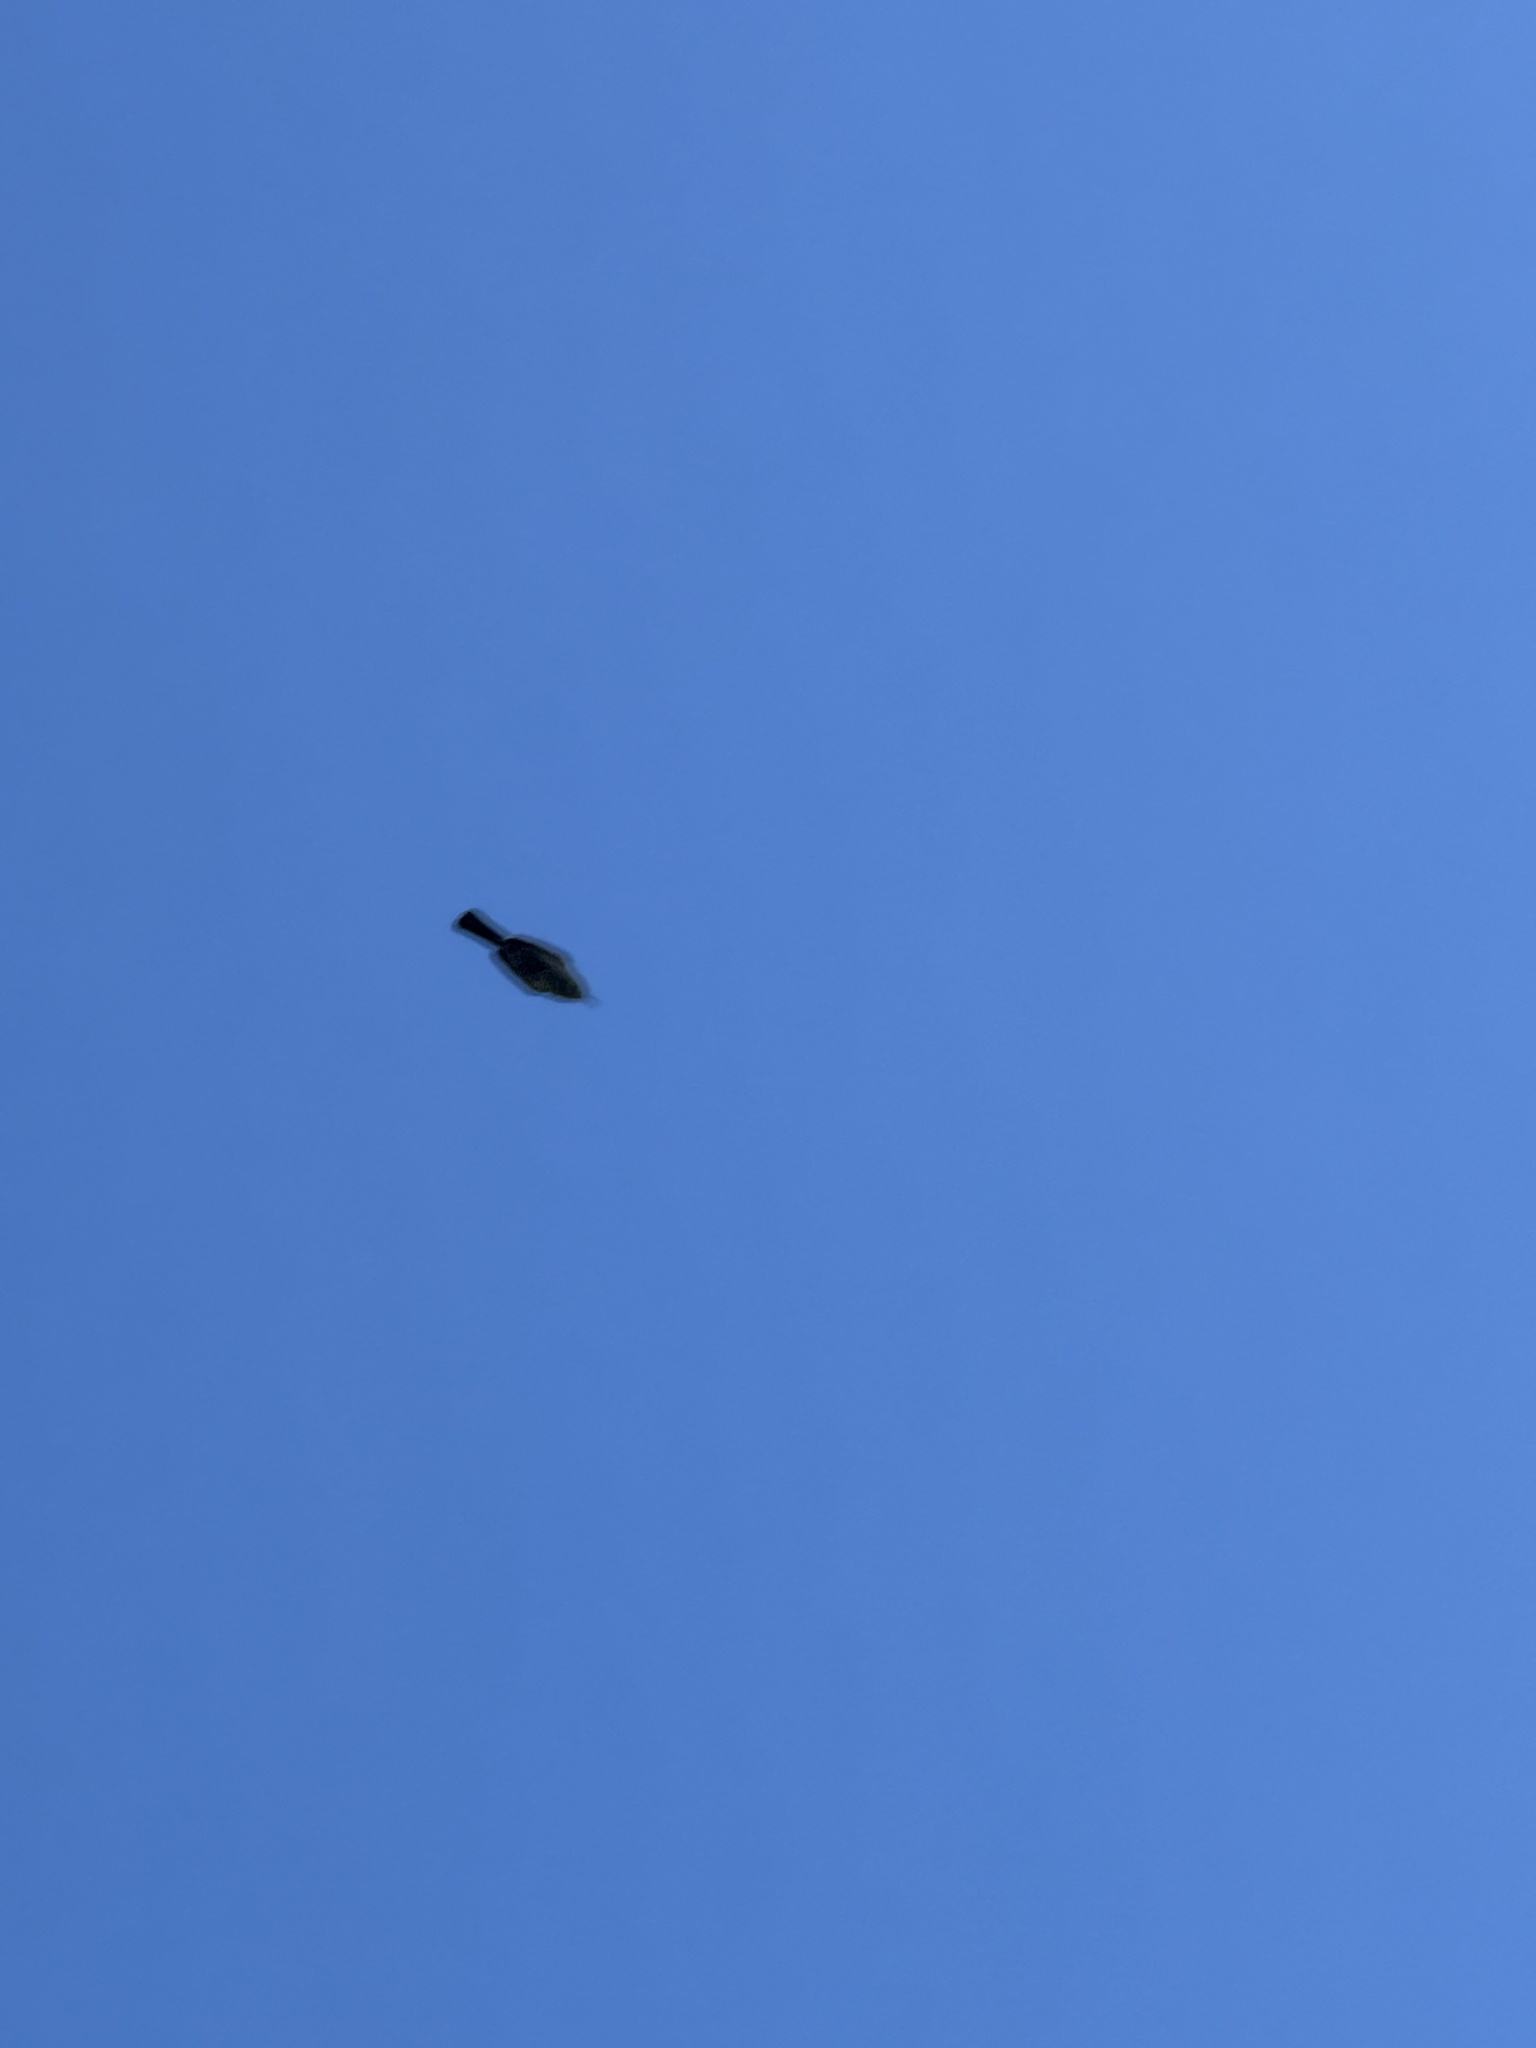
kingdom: Animalia
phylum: Chordata
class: Aves
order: Passeriformes
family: Troglodytidae
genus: Thryomanes
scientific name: Thryomanes bewickii
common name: Bewick's wren
